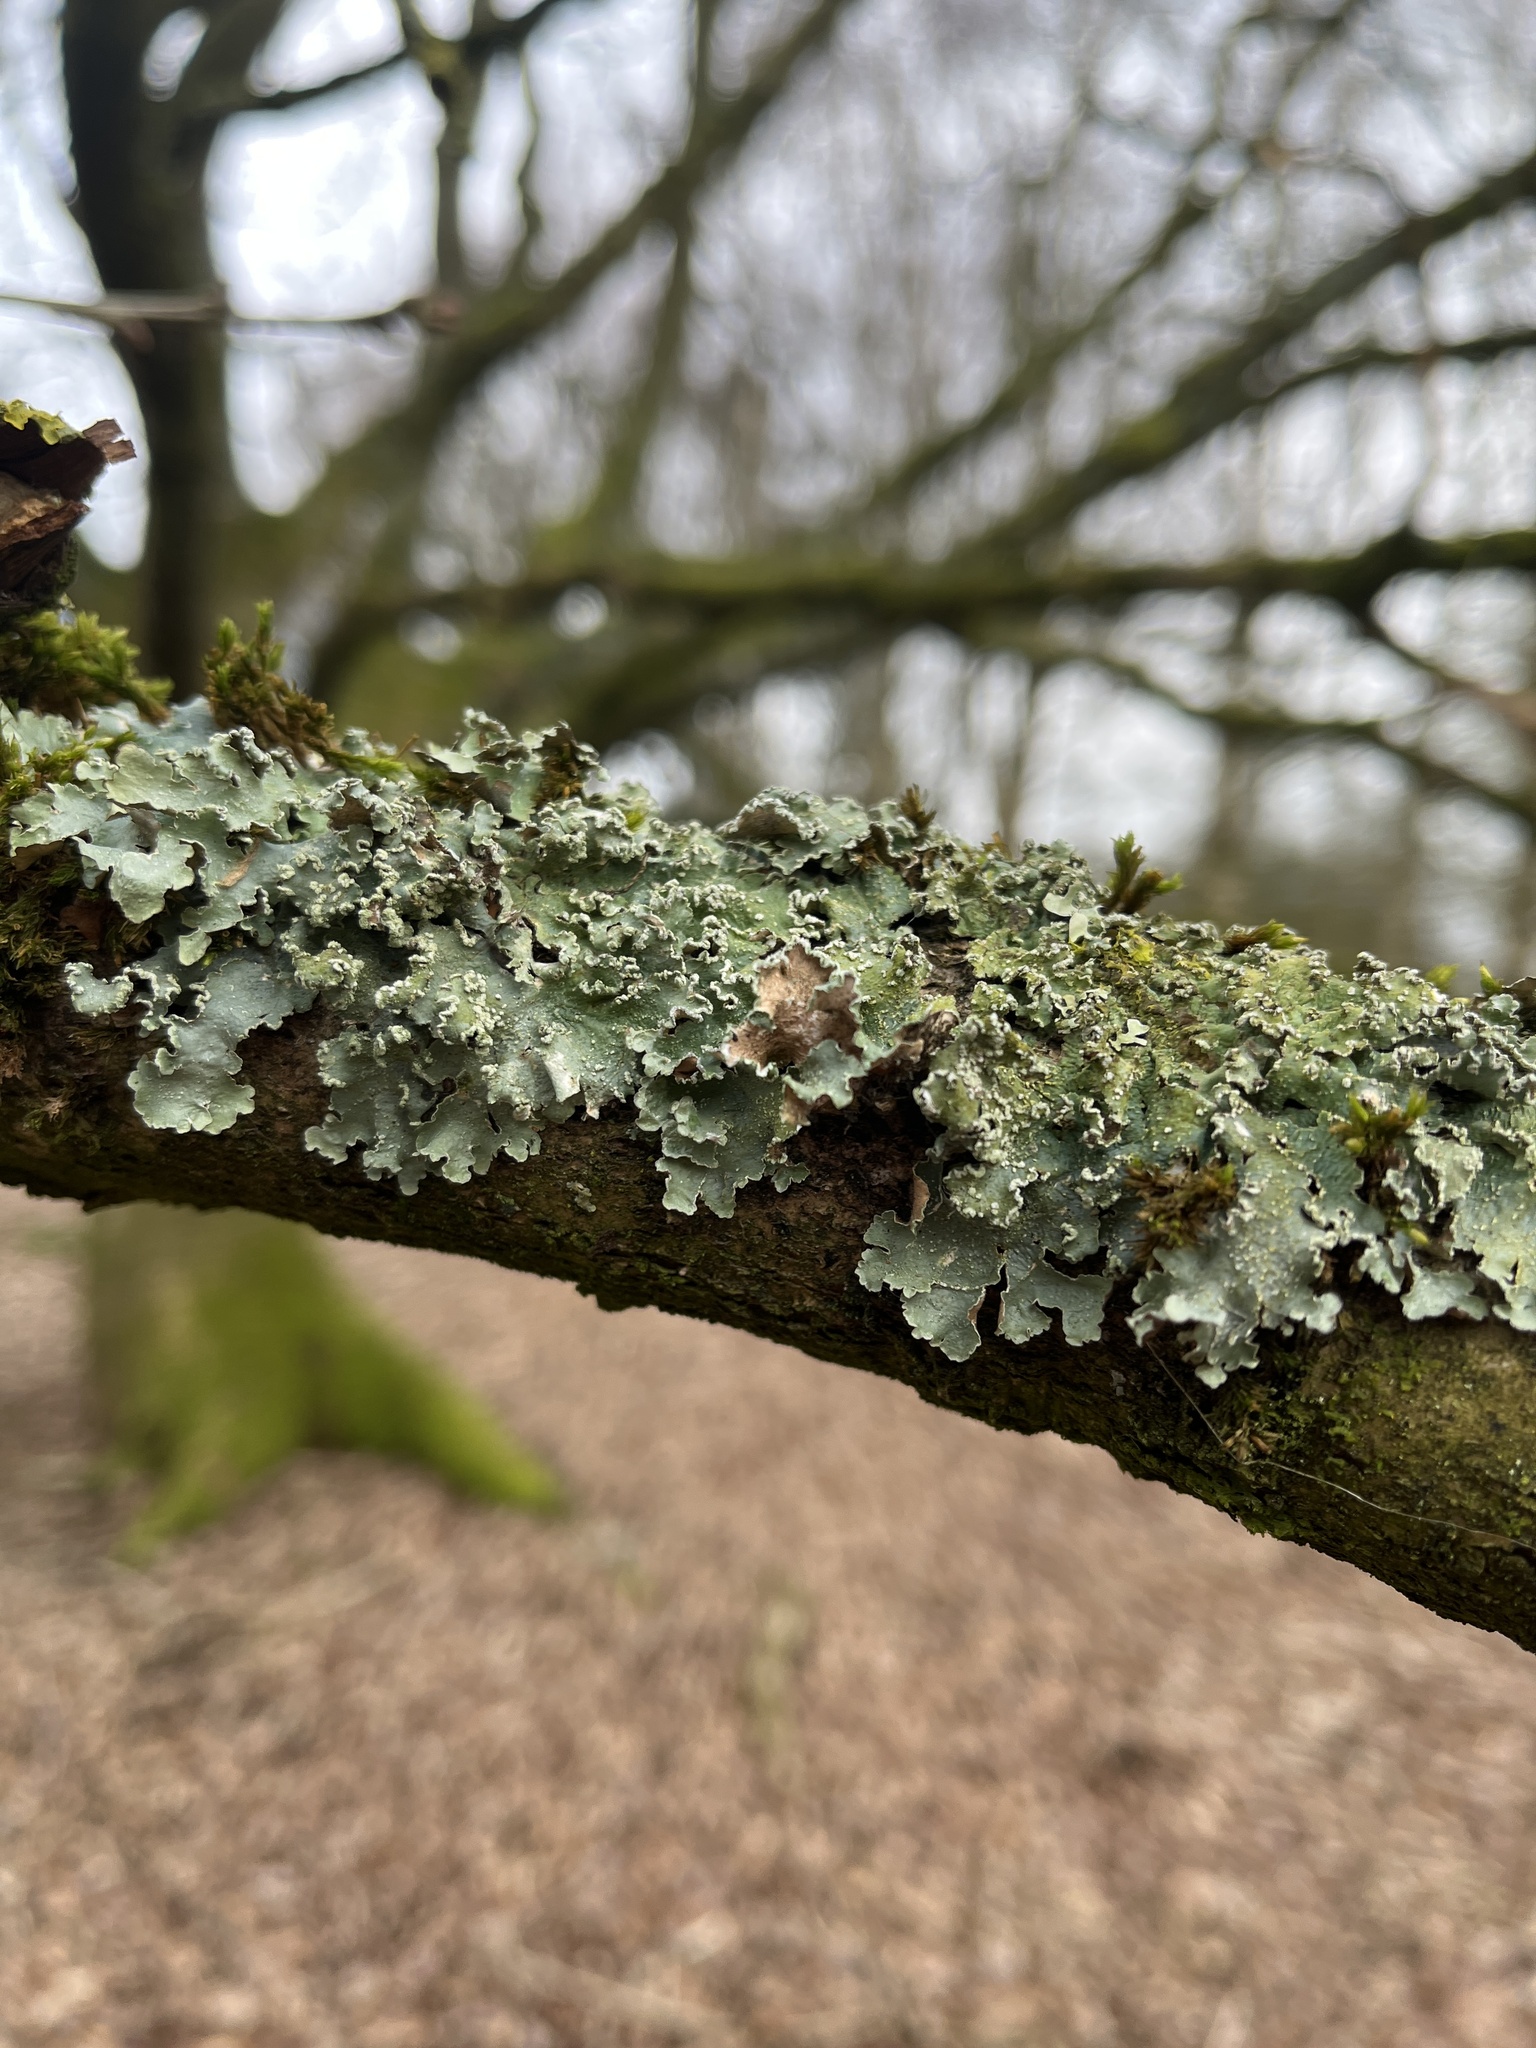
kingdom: Fungi
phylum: Ascomycota
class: Lecanoromycetes
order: Lecanorales
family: Parmeliaceae
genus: Punctelia
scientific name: Punctelia jeckeri
